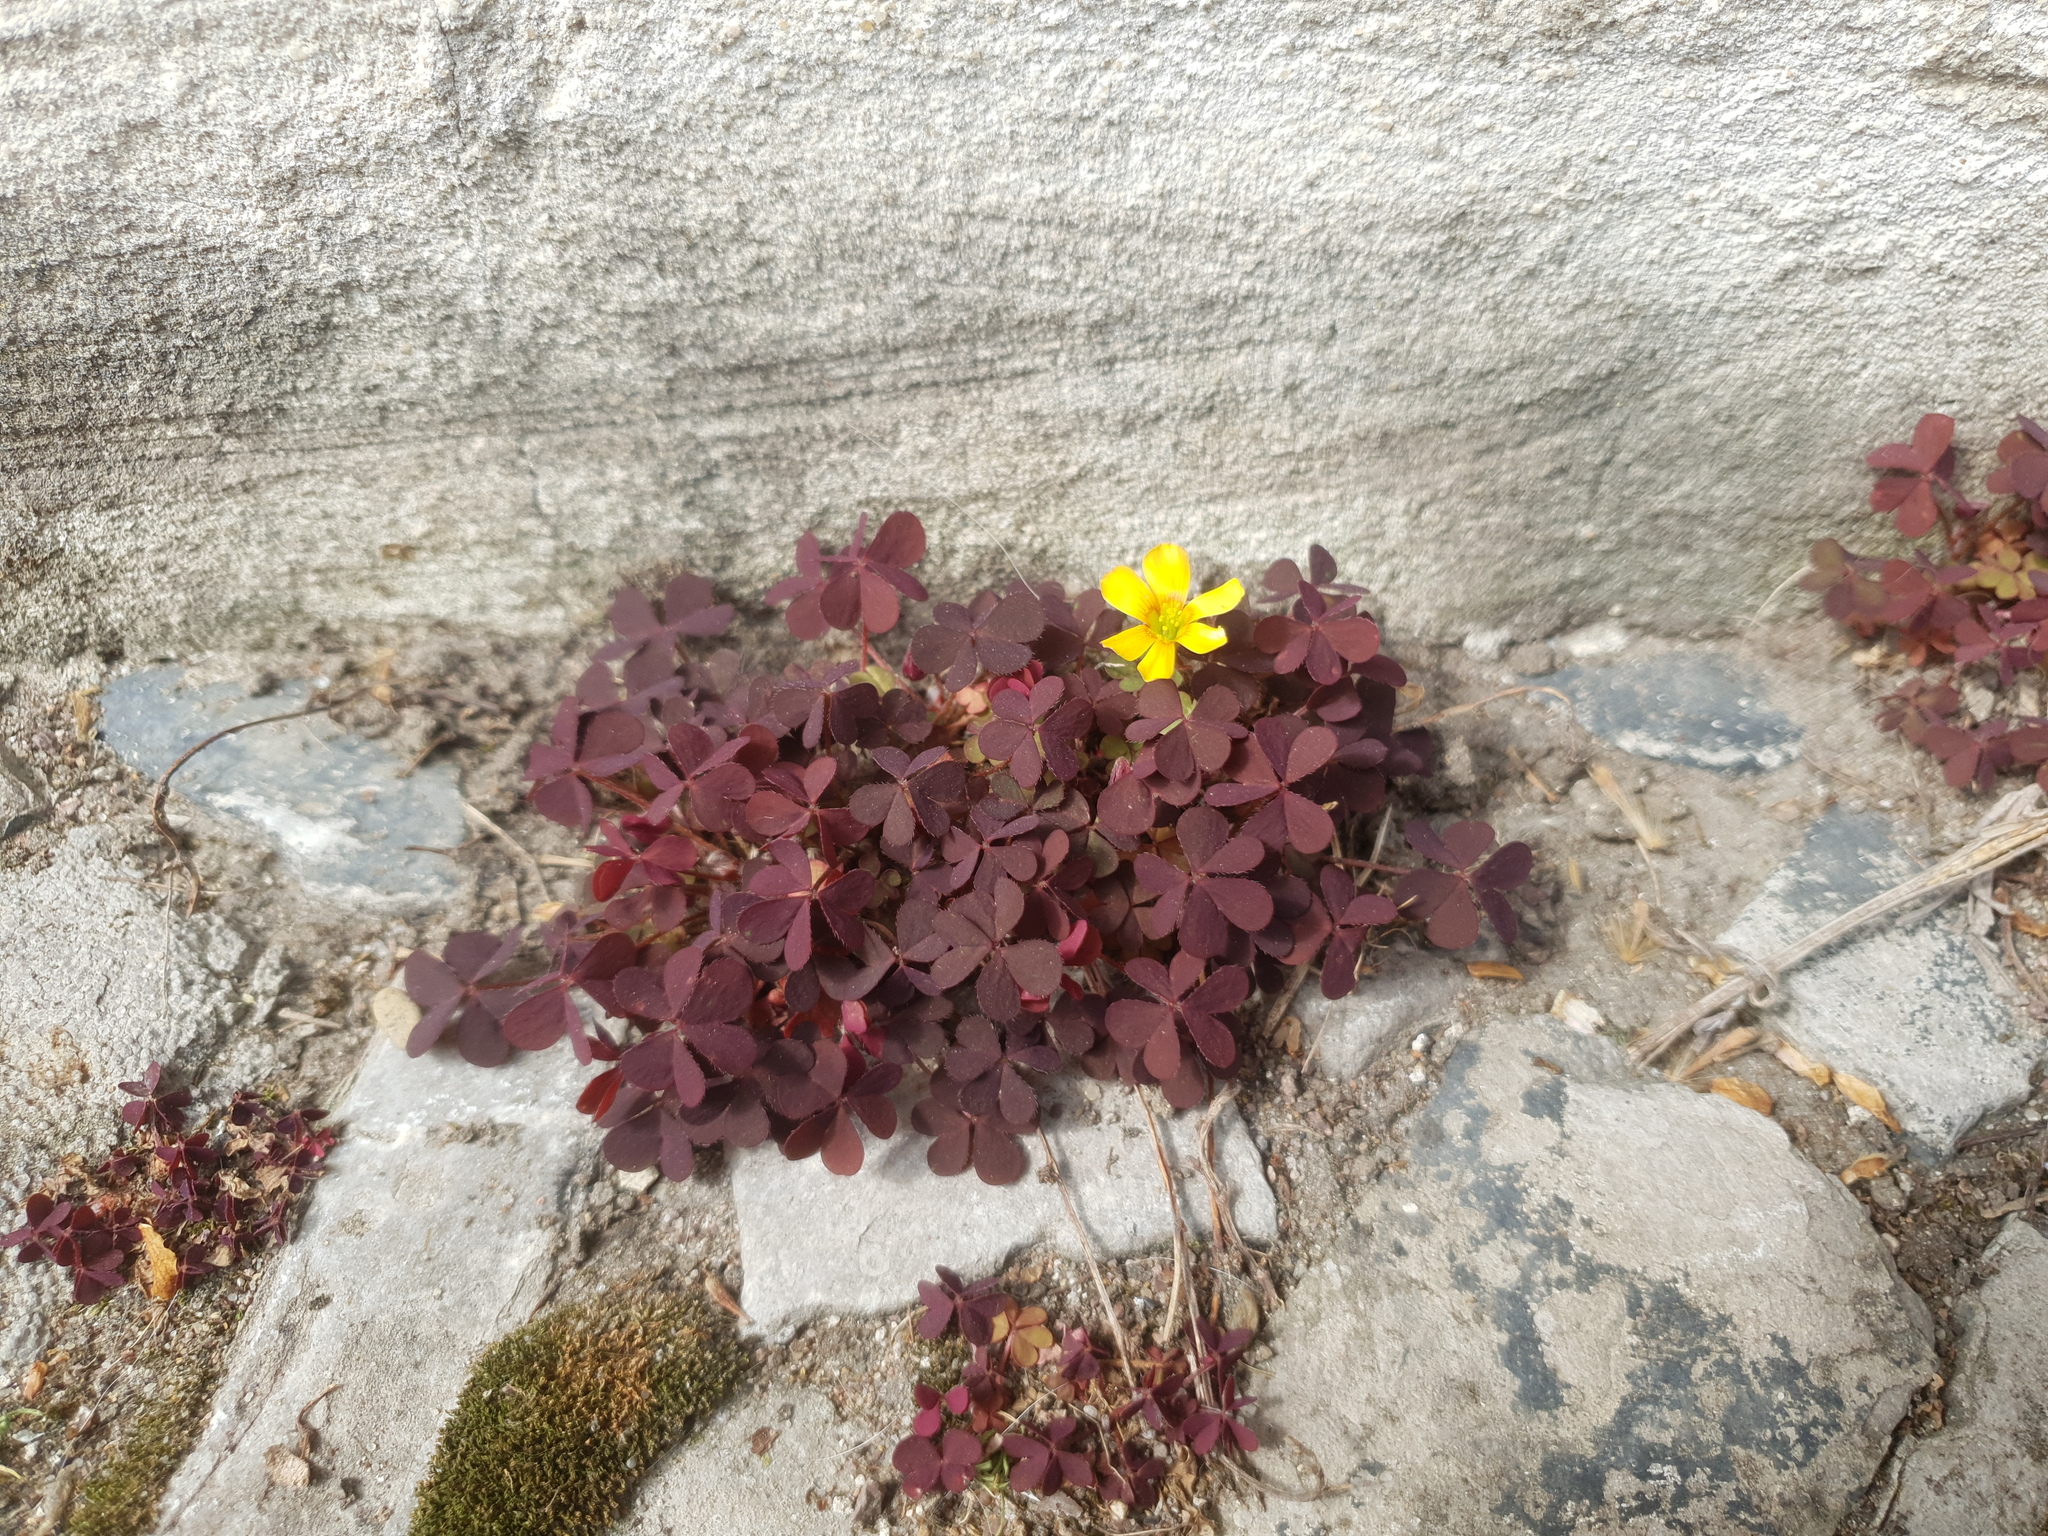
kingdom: Plantae
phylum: Tracheophyta
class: Magnoliopsida
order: Oxalidales
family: Oxalidaceae
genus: Oxalis
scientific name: Oxalis corniculata
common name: Procumbent yellow-sorrel
